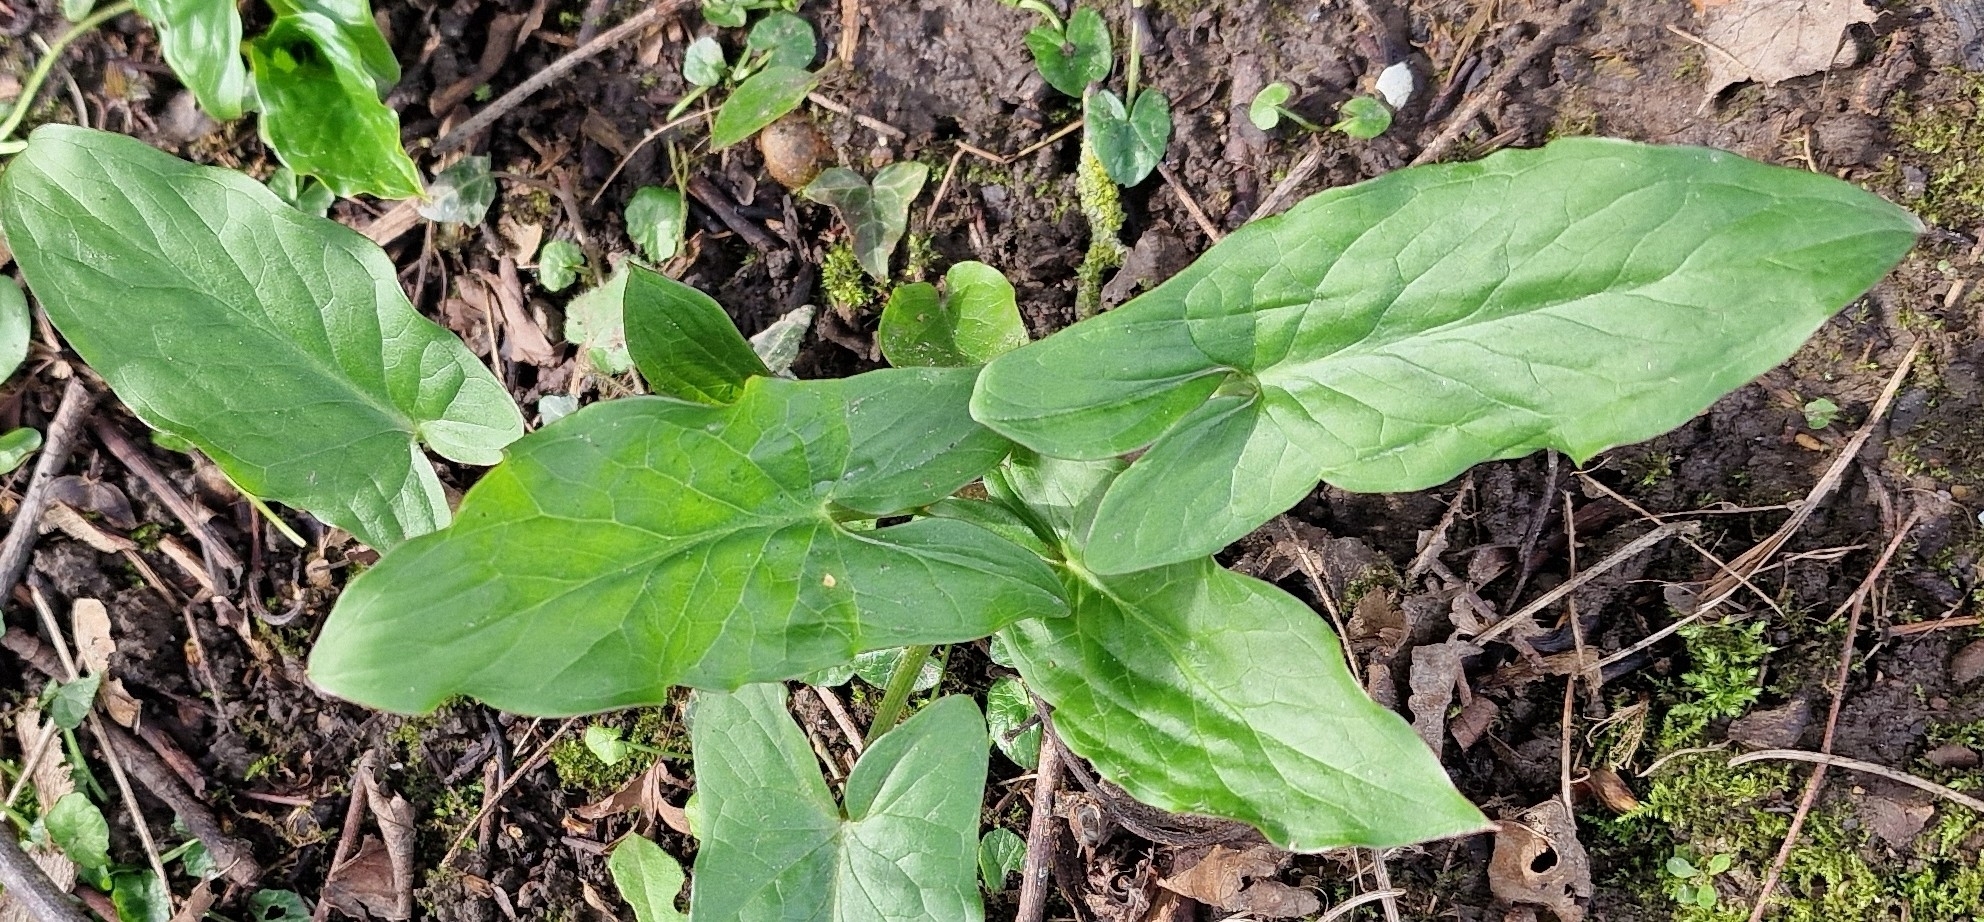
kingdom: Plantae
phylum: Tracheophyta
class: Liliopsida
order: Alismatales
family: Araceae
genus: Arum
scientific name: Arum maculatum
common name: Lords-and-ladies
